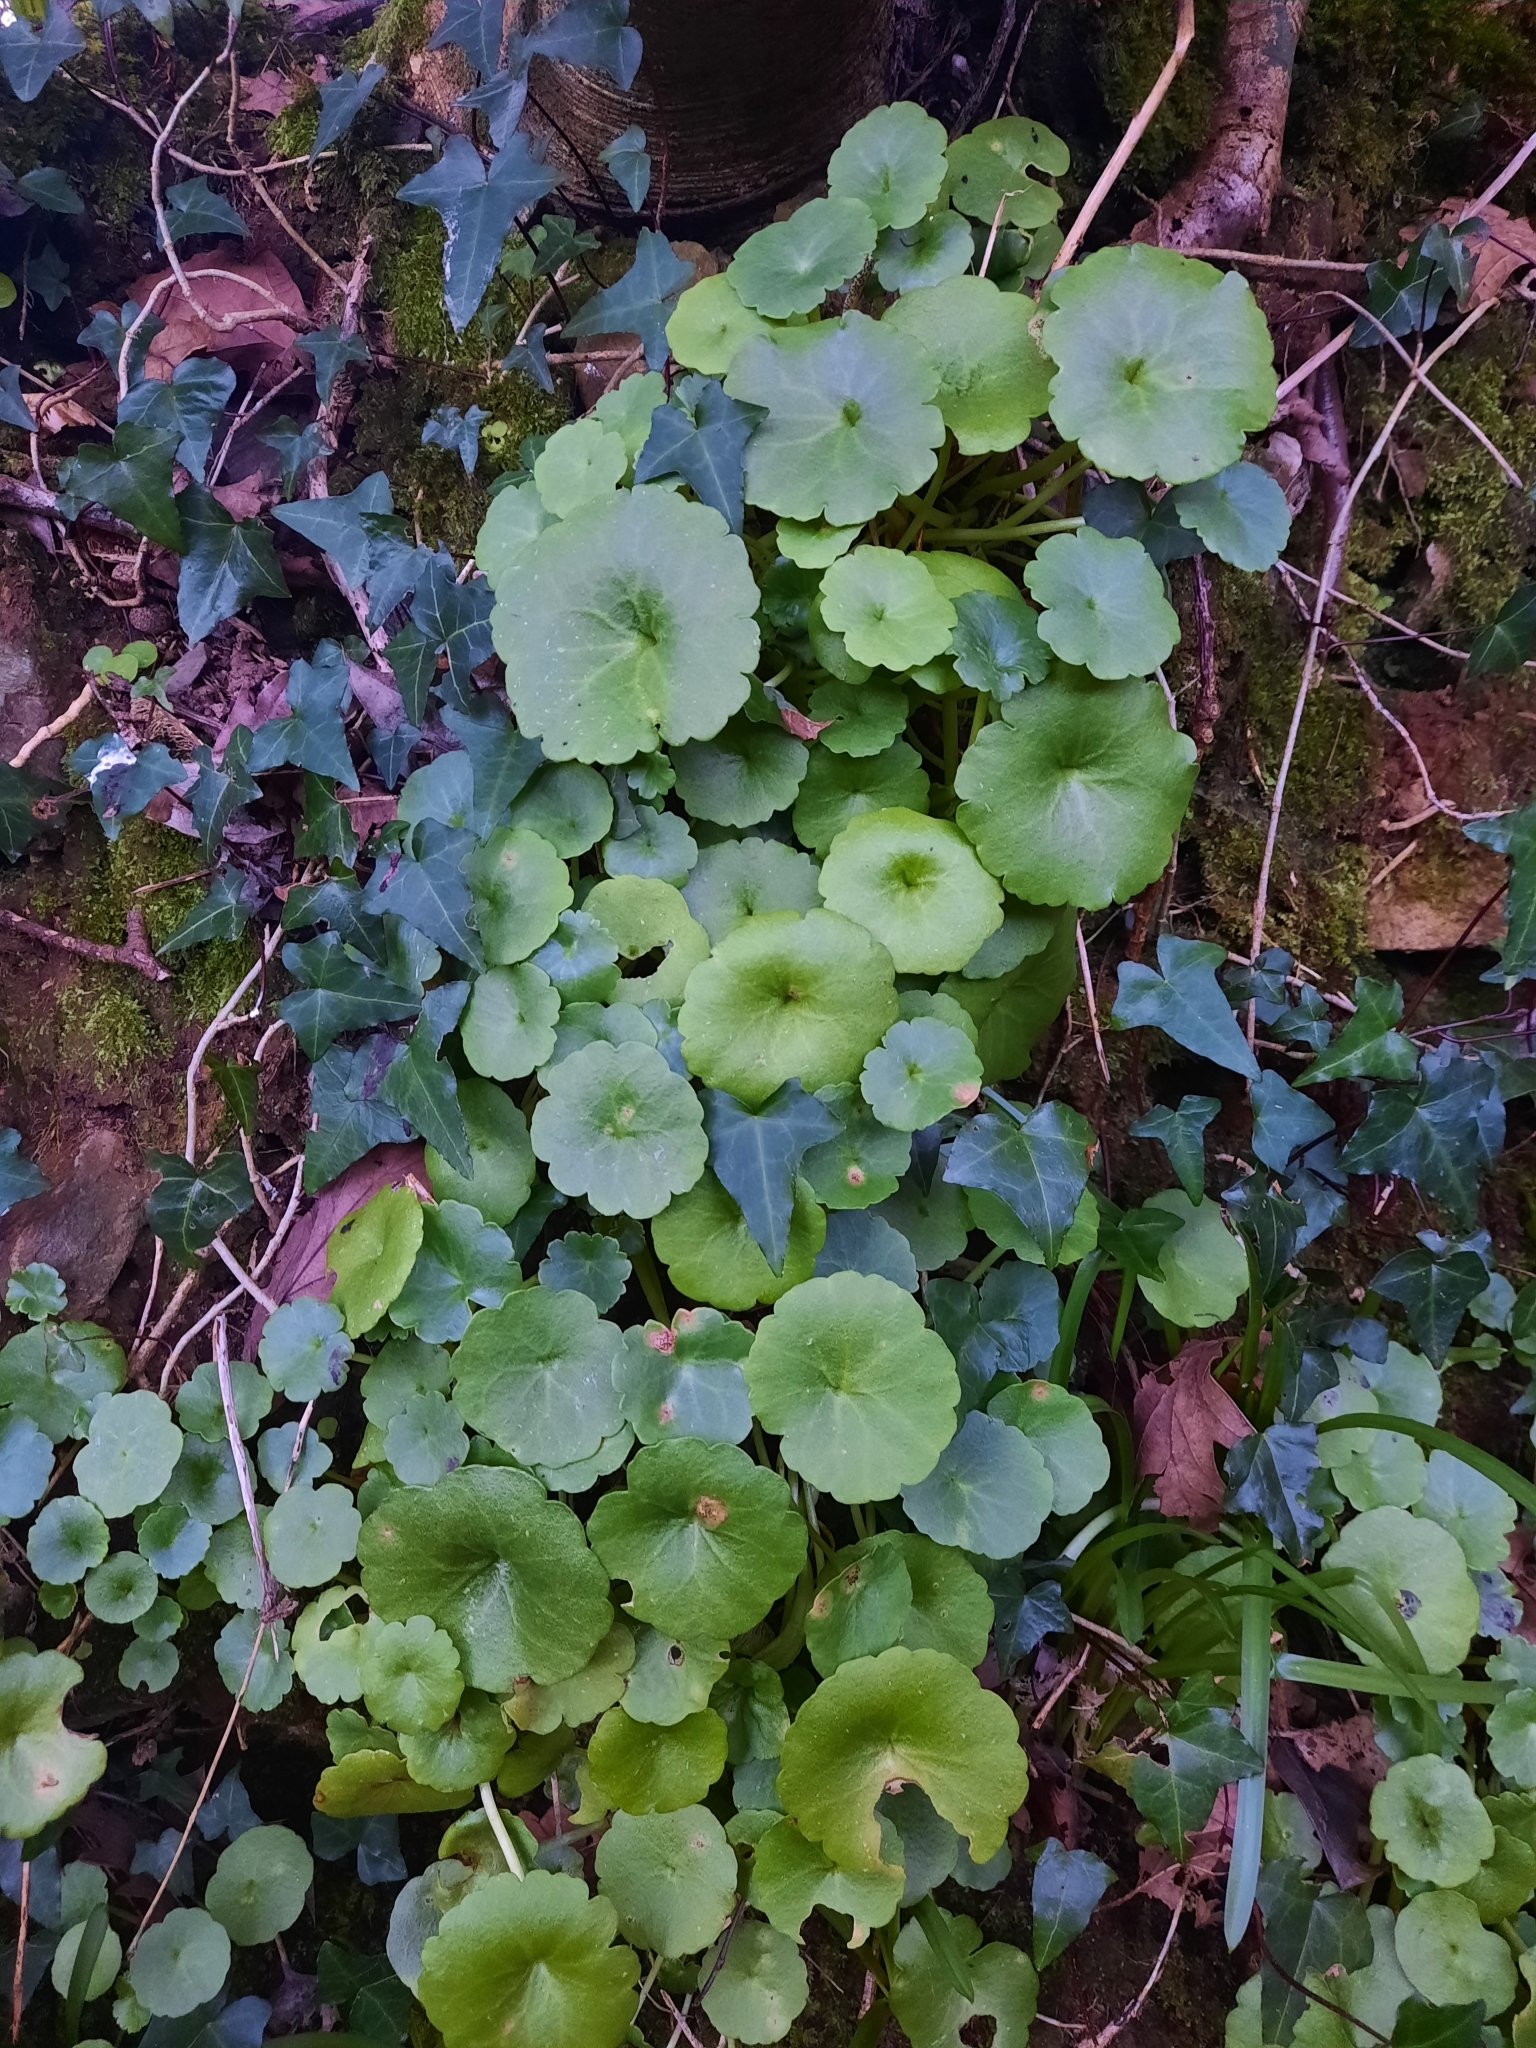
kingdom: Plantae
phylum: Tracheophyta
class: Magnoliopsida
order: Saxifragales
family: Crassulaceae
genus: Umbilicus
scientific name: Umbilicus rupestris
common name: Navelwort
